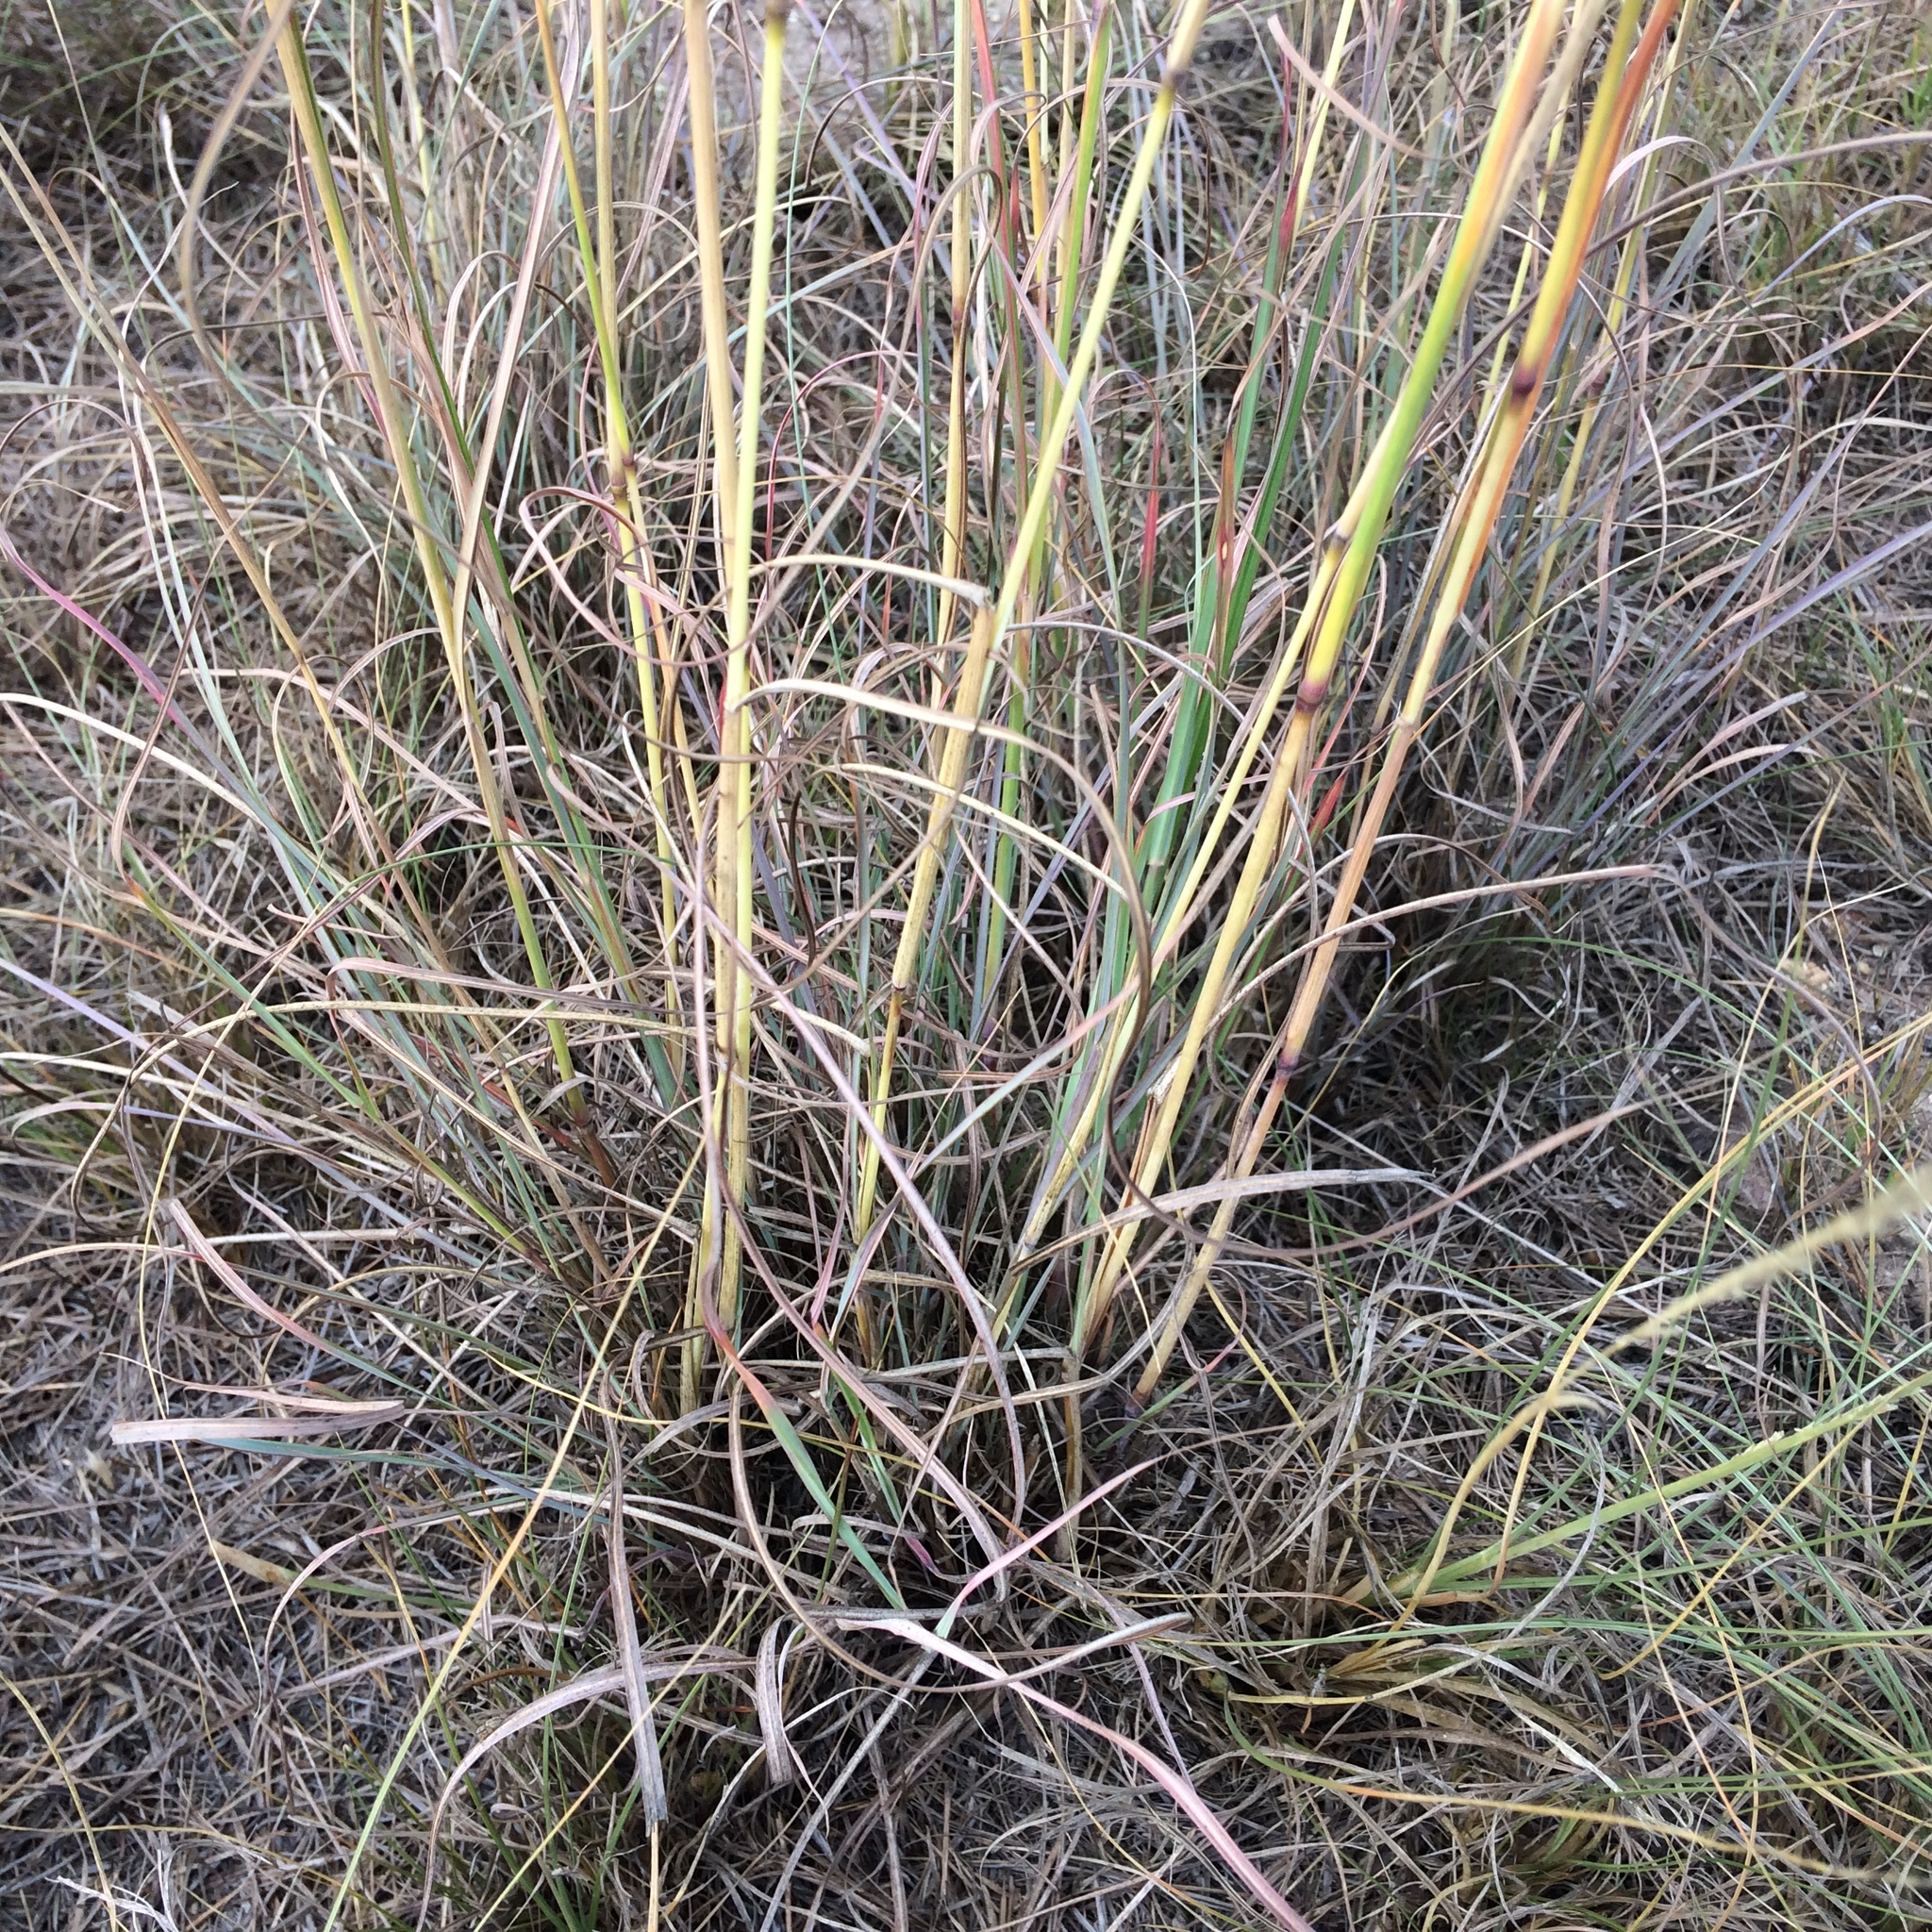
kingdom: Plantae
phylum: Tracheophyta
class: Liliopsida
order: Poales
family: Poaceae
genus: Hyparrhenia
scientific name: Hyparrhenia hirta
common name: Thatching grass
